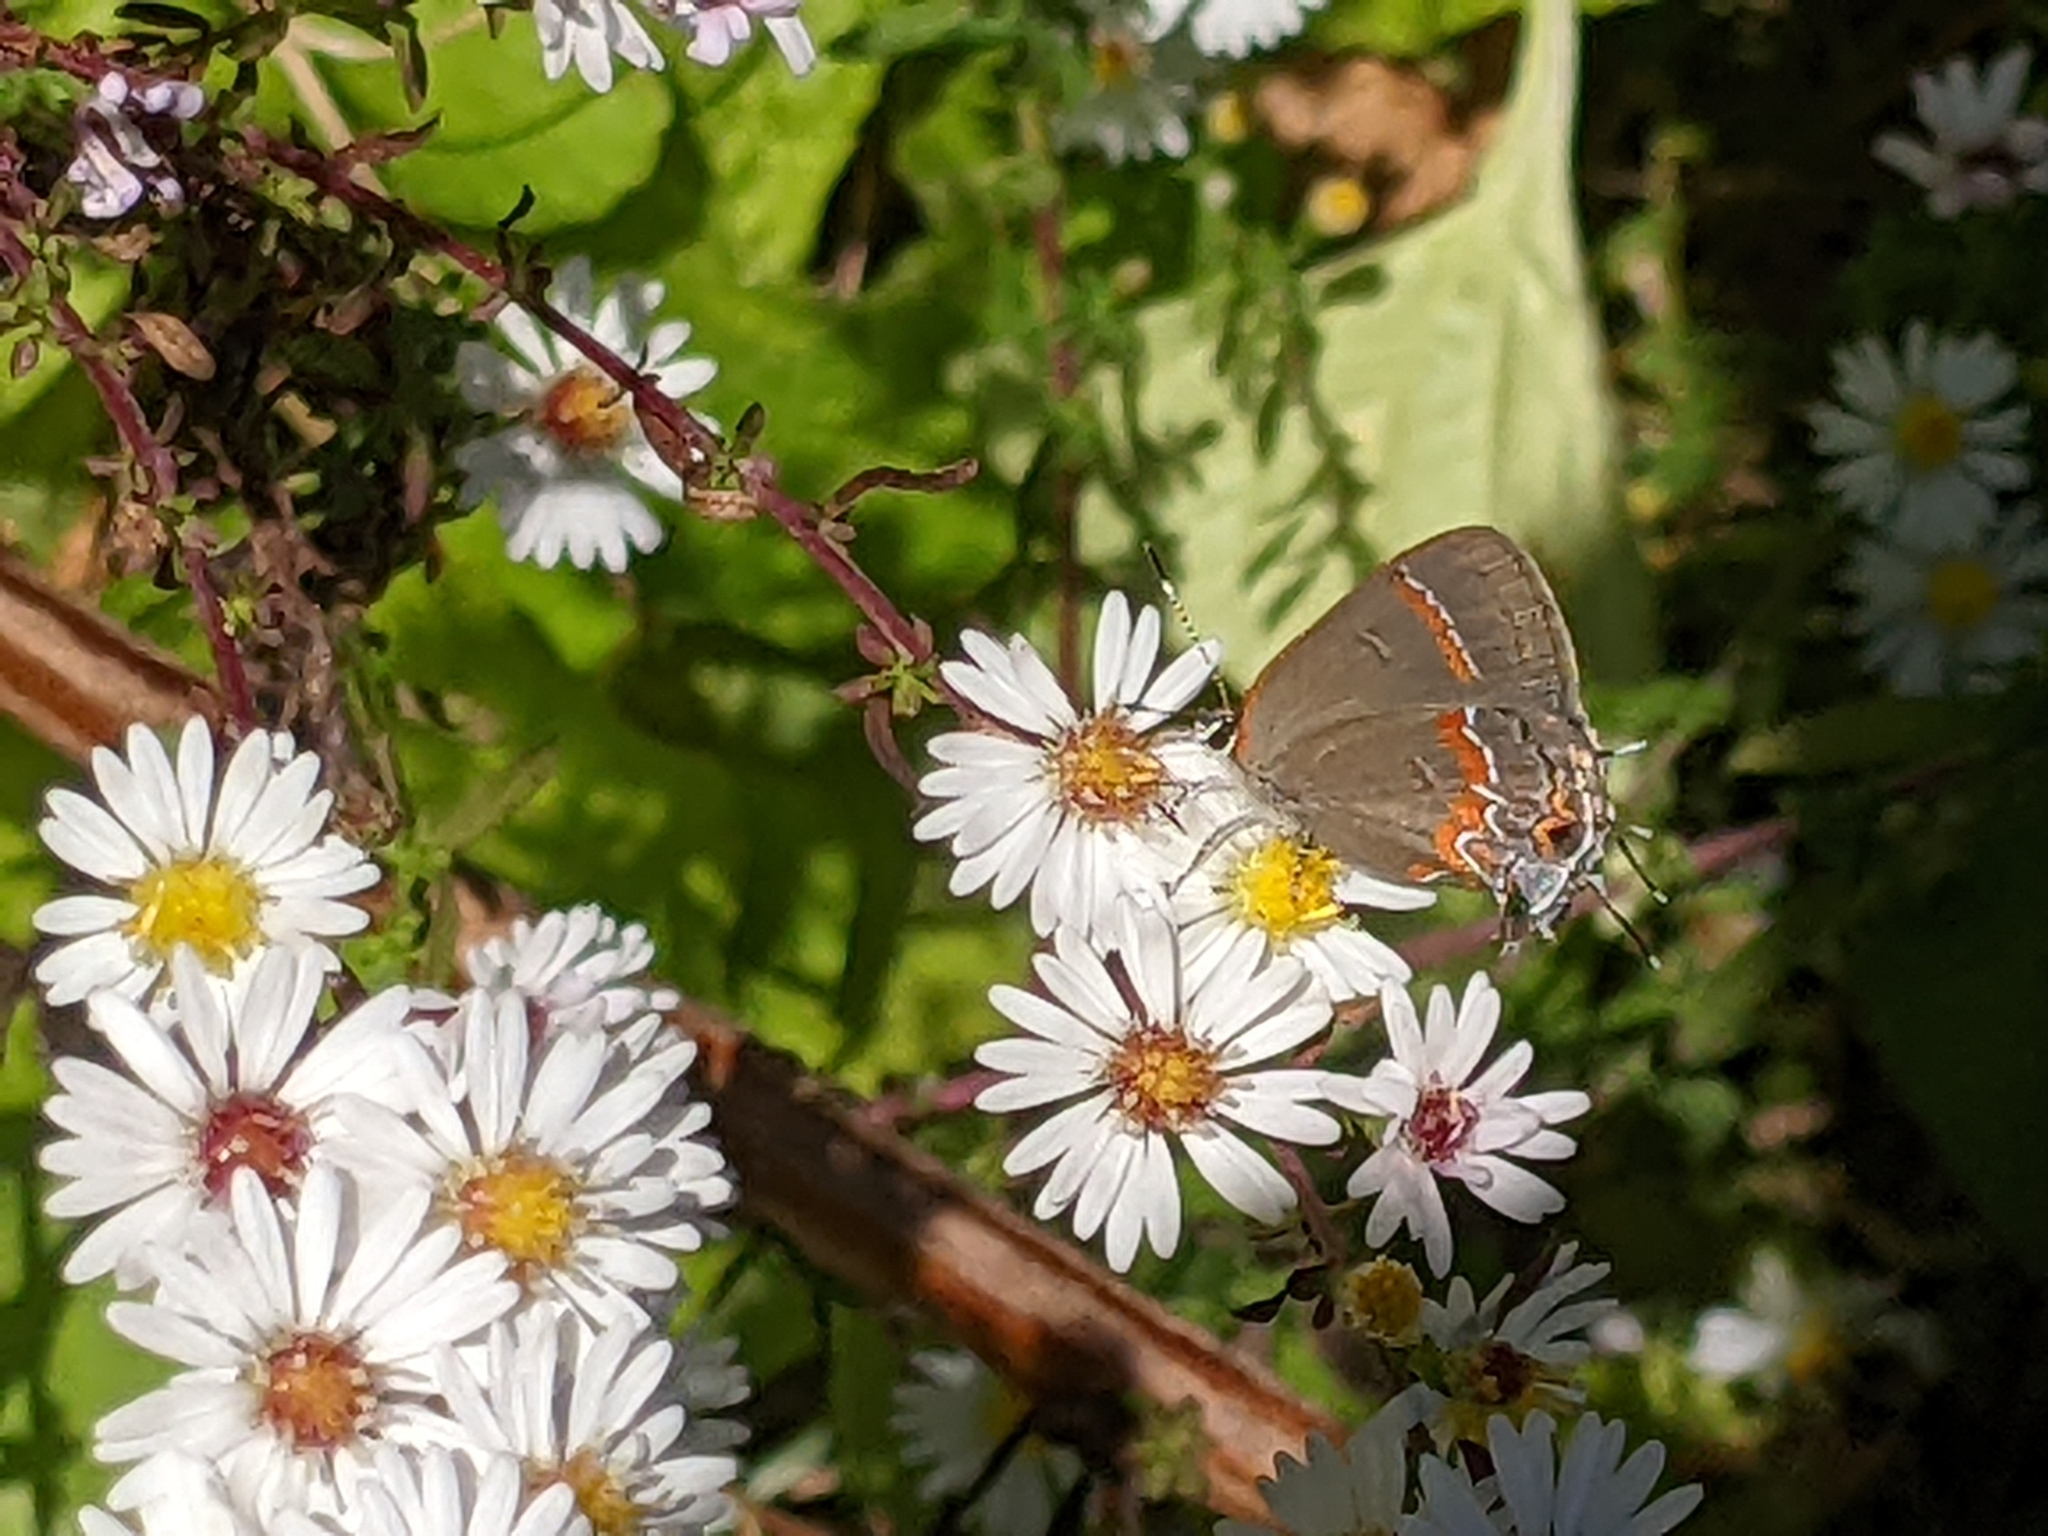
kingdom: Animalia
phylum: Arthropoda
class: Insecta
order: Lepidoptera
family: Lycaenidae
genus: Calycopis
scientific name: Calycopis cecrops
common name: Red-banded hairstreak
